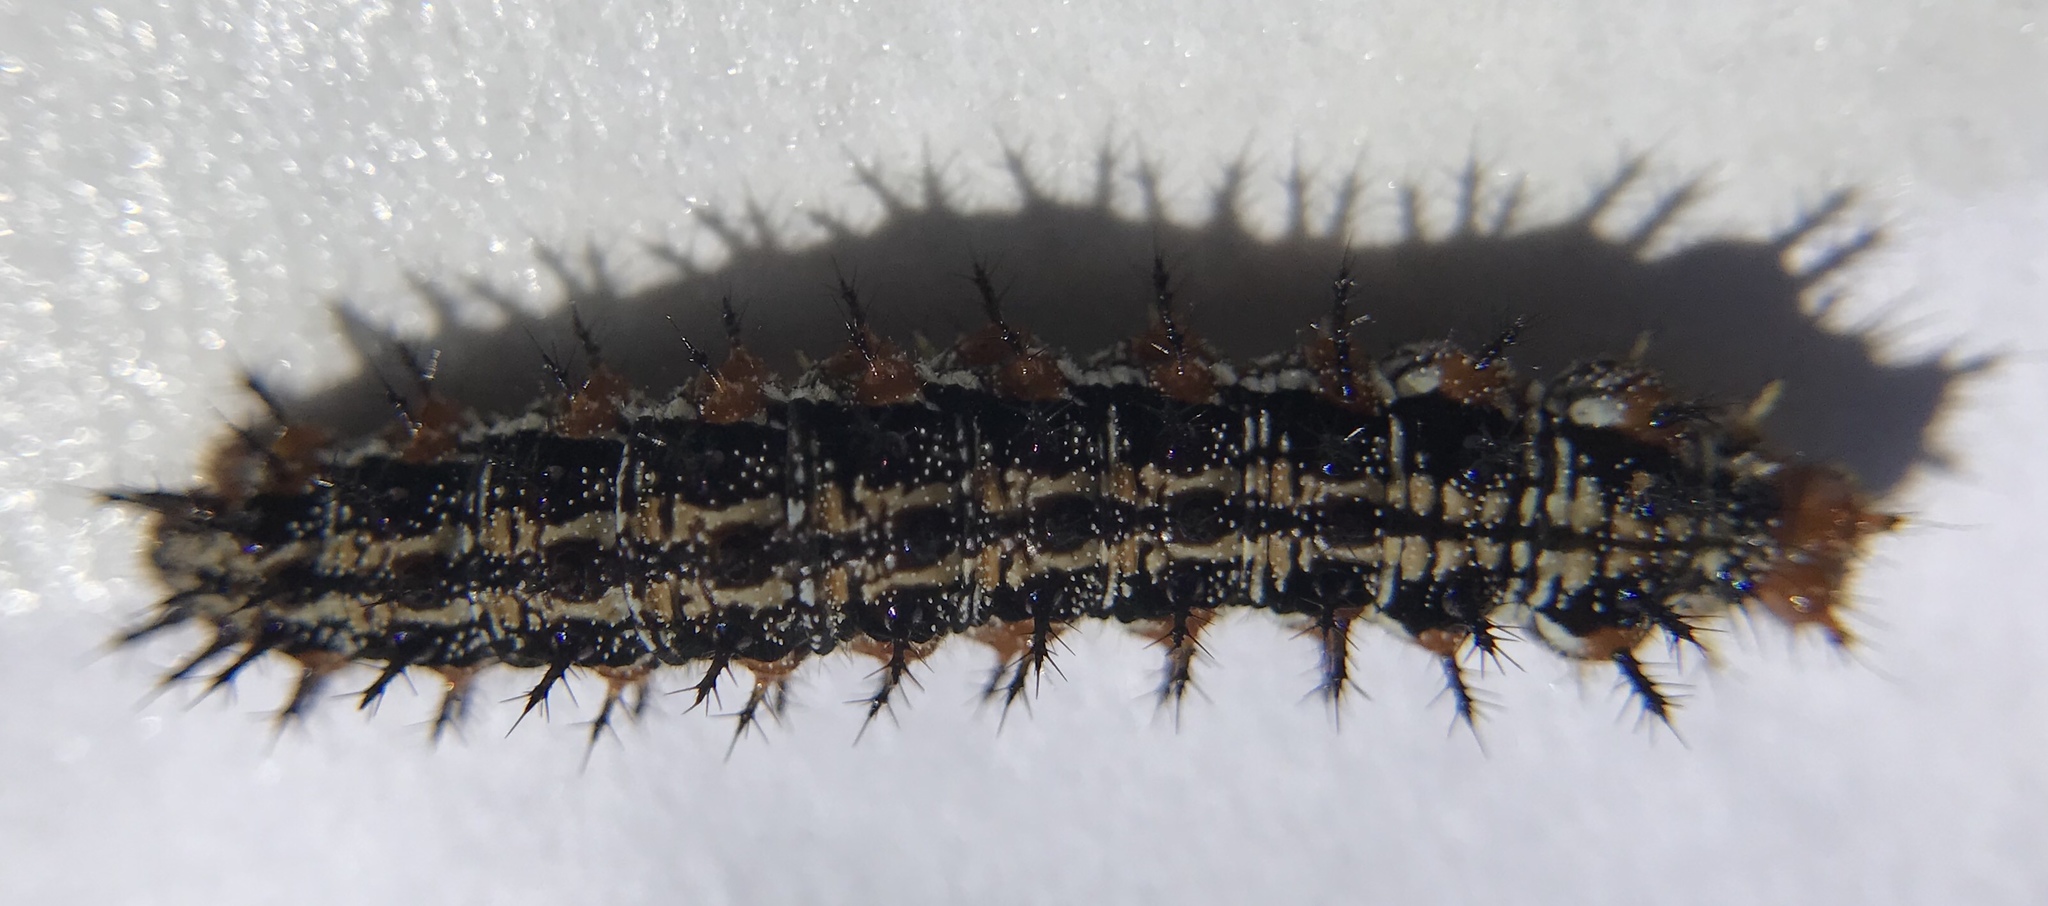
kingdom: Animalia
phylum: Arthropoda
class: Insecta
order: Lepidoptera
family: Nymphalidae
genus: Junonia
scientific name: Junonia coenia
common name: Common buckeye
